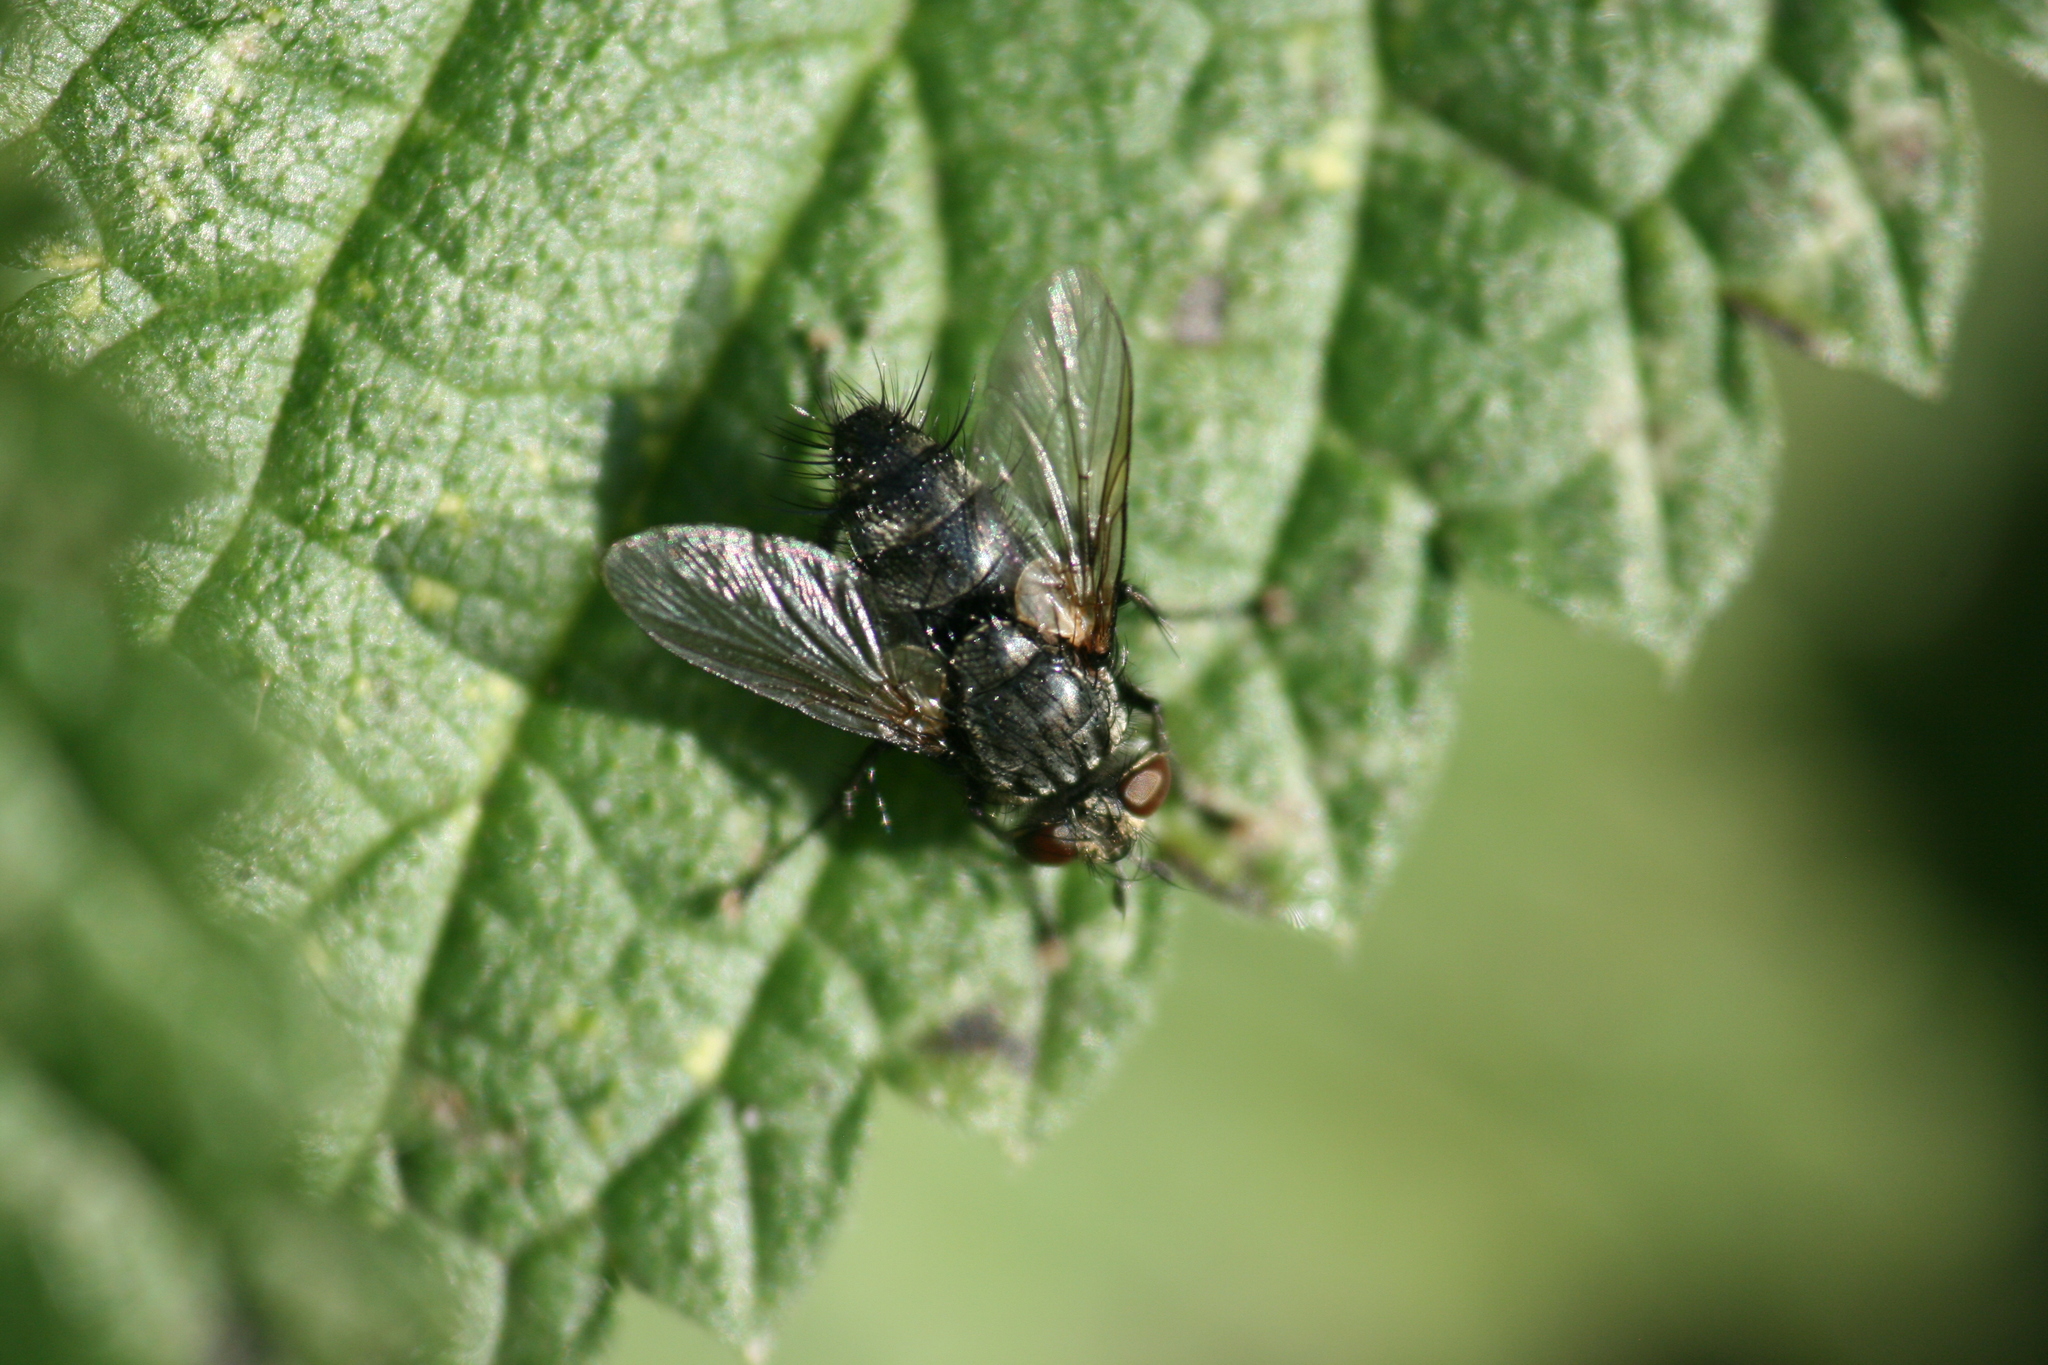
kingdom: Animalia
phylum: Arthropoda
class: Insecta
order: Diptera
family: Tachinidae
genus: Voria
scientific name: Voria ruralis
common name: Parasitic fly
